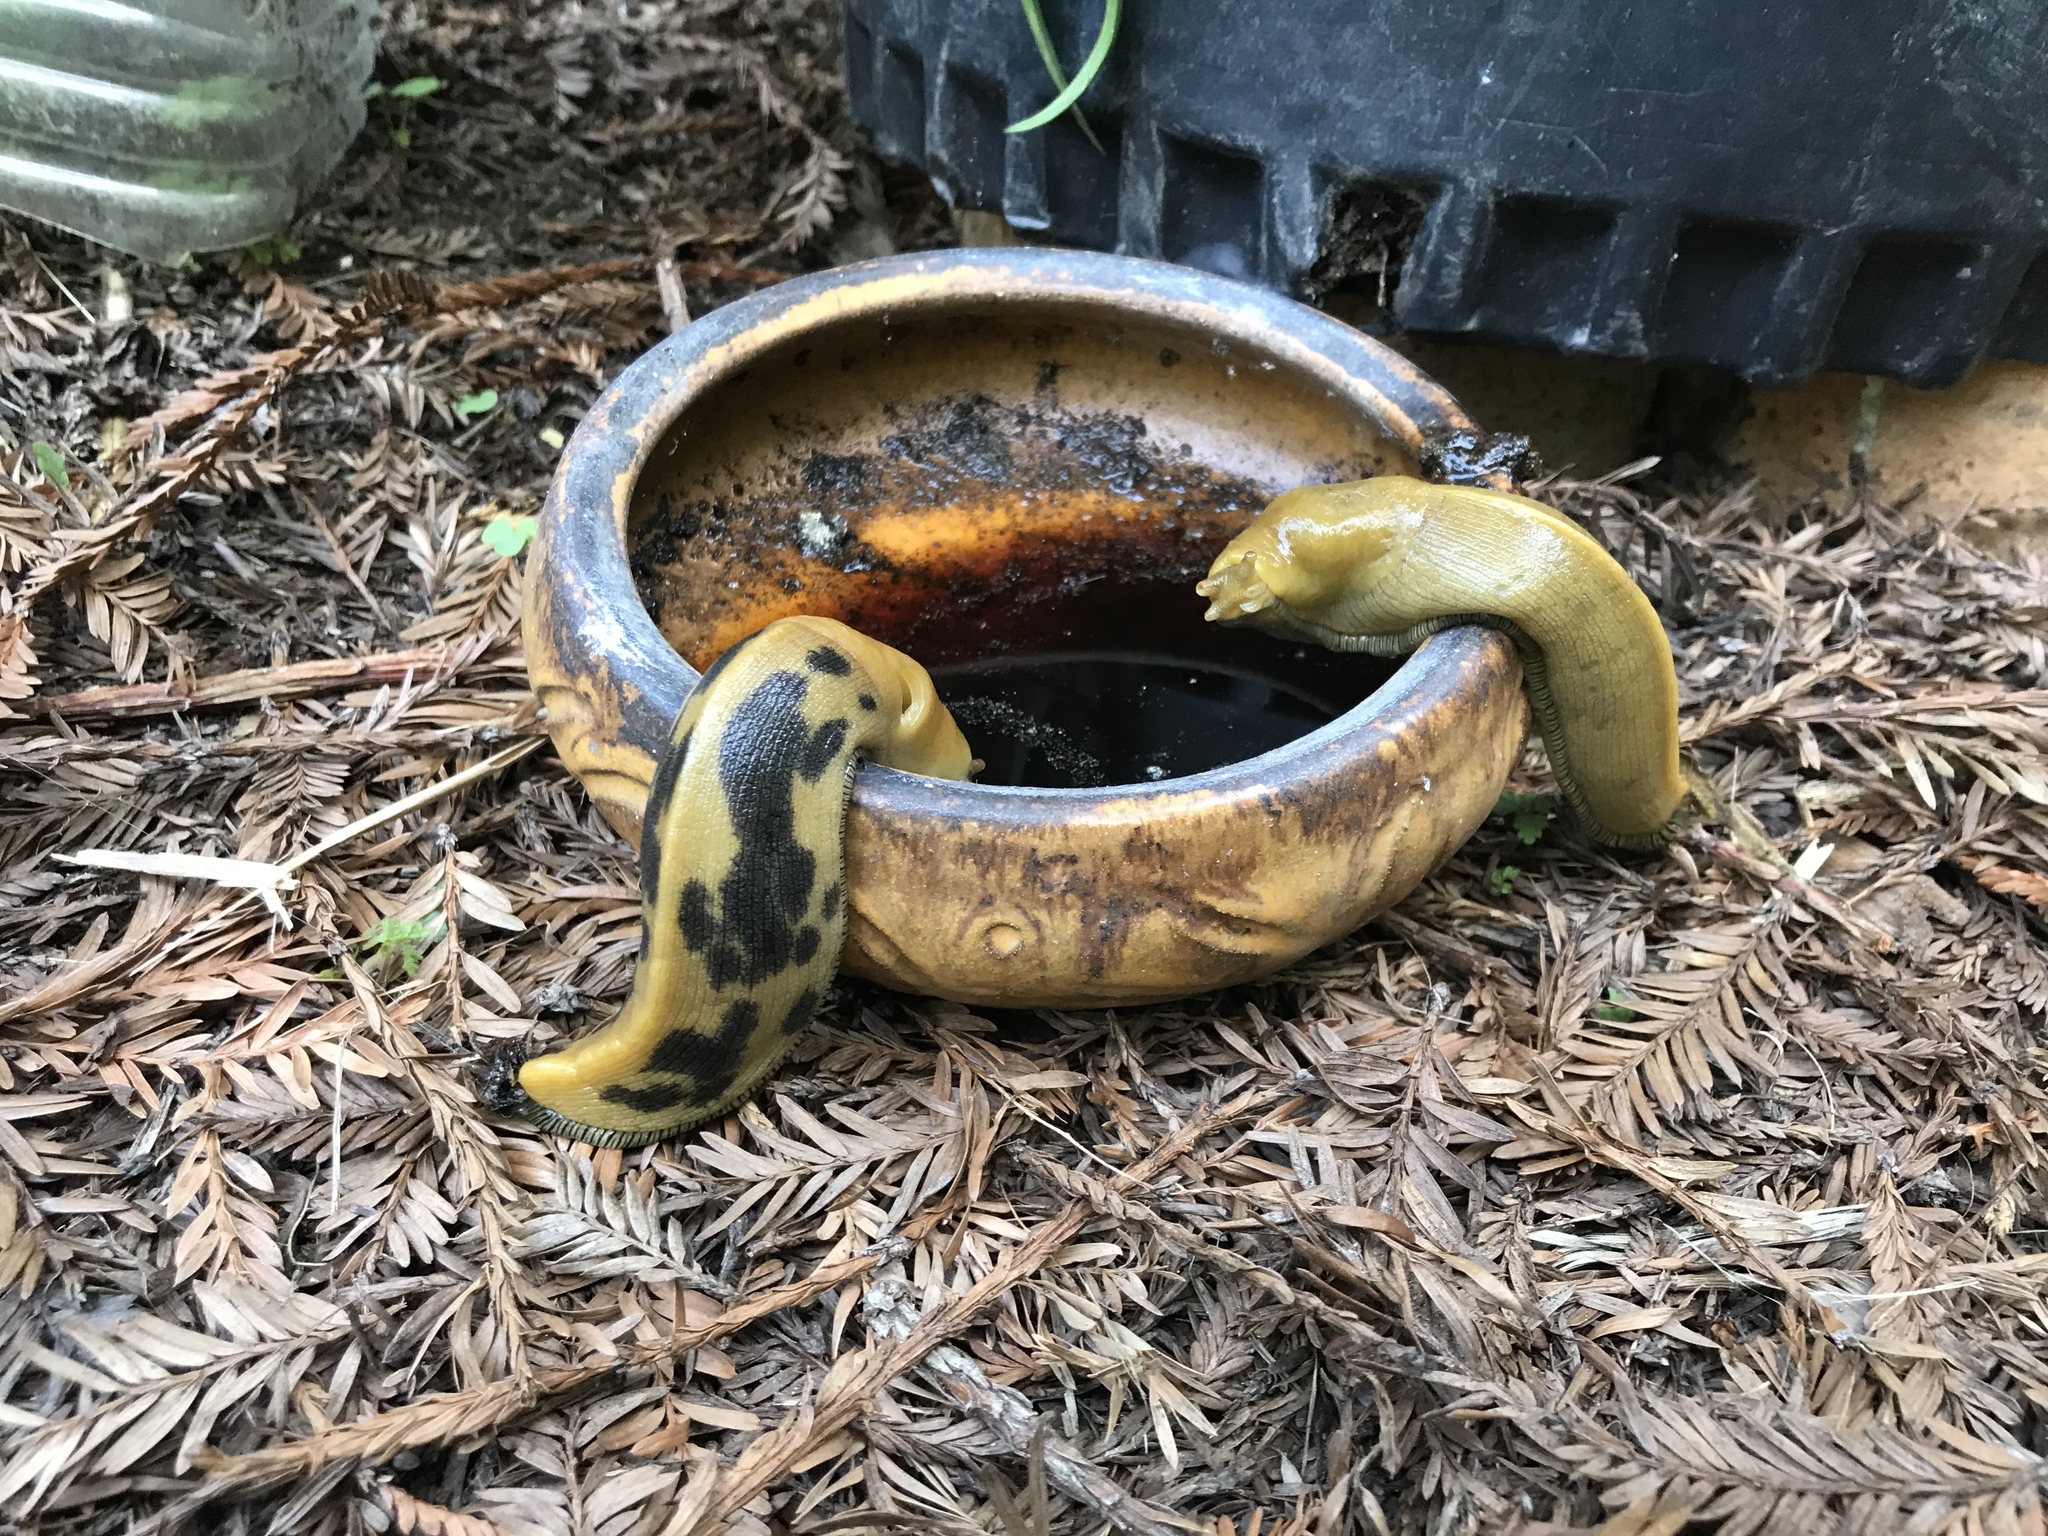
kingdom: Animalia
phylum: Mollusca
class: Gastropoda
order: Stylommatophora
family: Ariolimacidae
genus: Ariolimax
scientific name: Ariolimax buttoni
